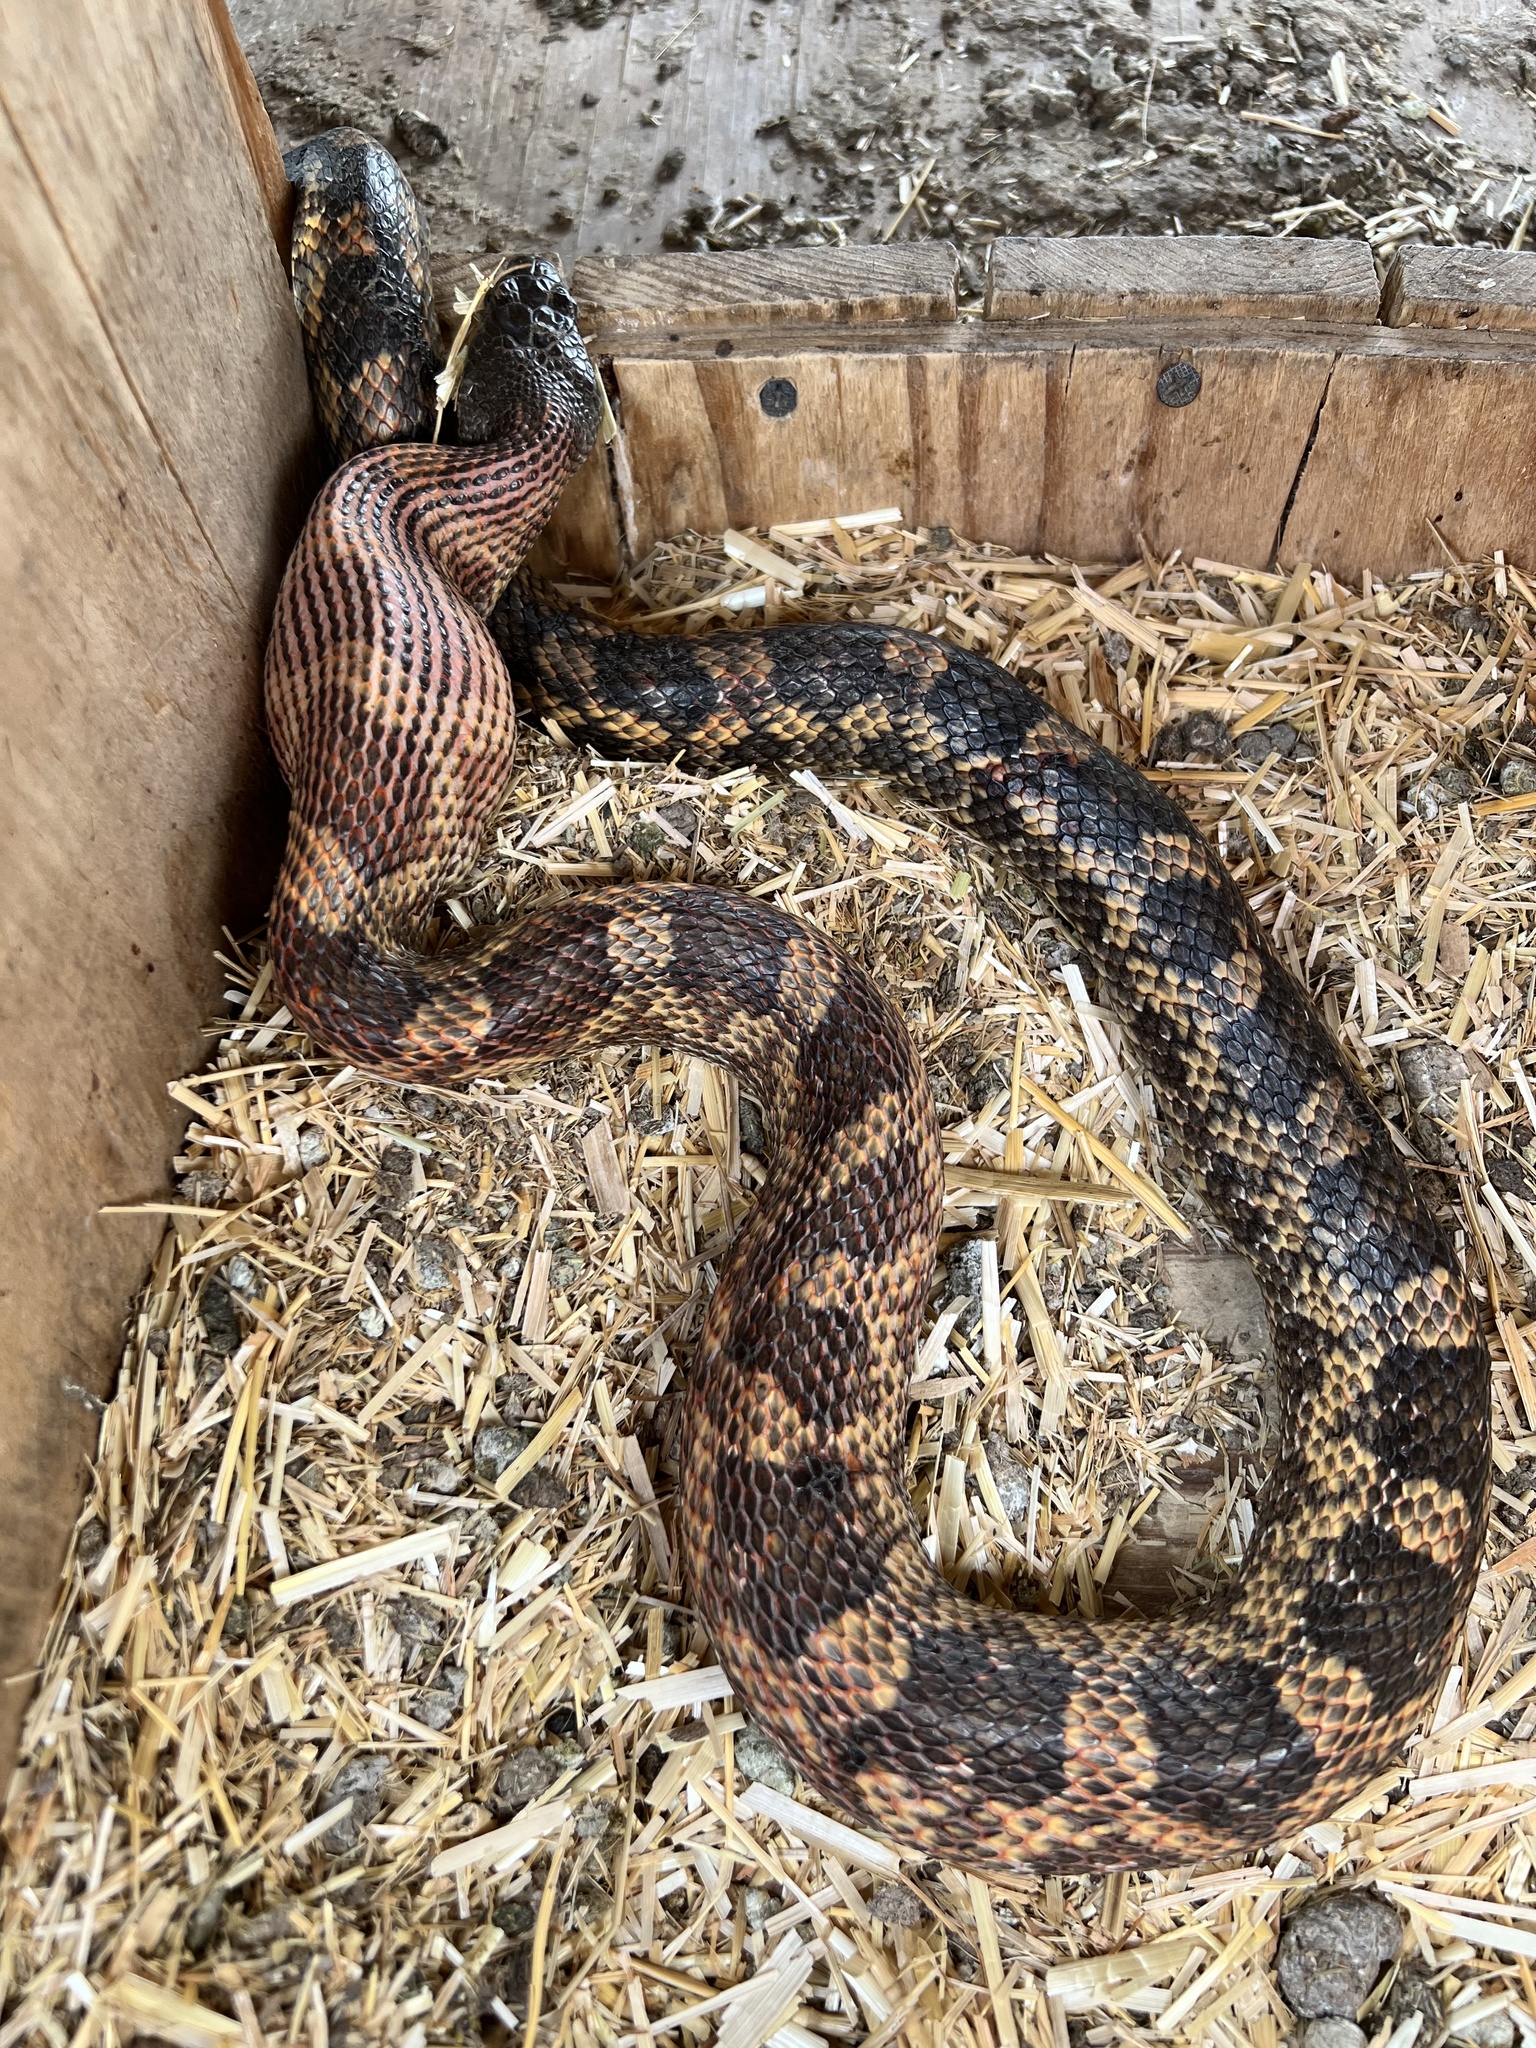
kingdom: Animalia
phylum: Chordata
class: Squamata
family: Colubridae
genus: Pantherophis
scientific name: Pantherophis obsoletus
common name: Black rat snake
